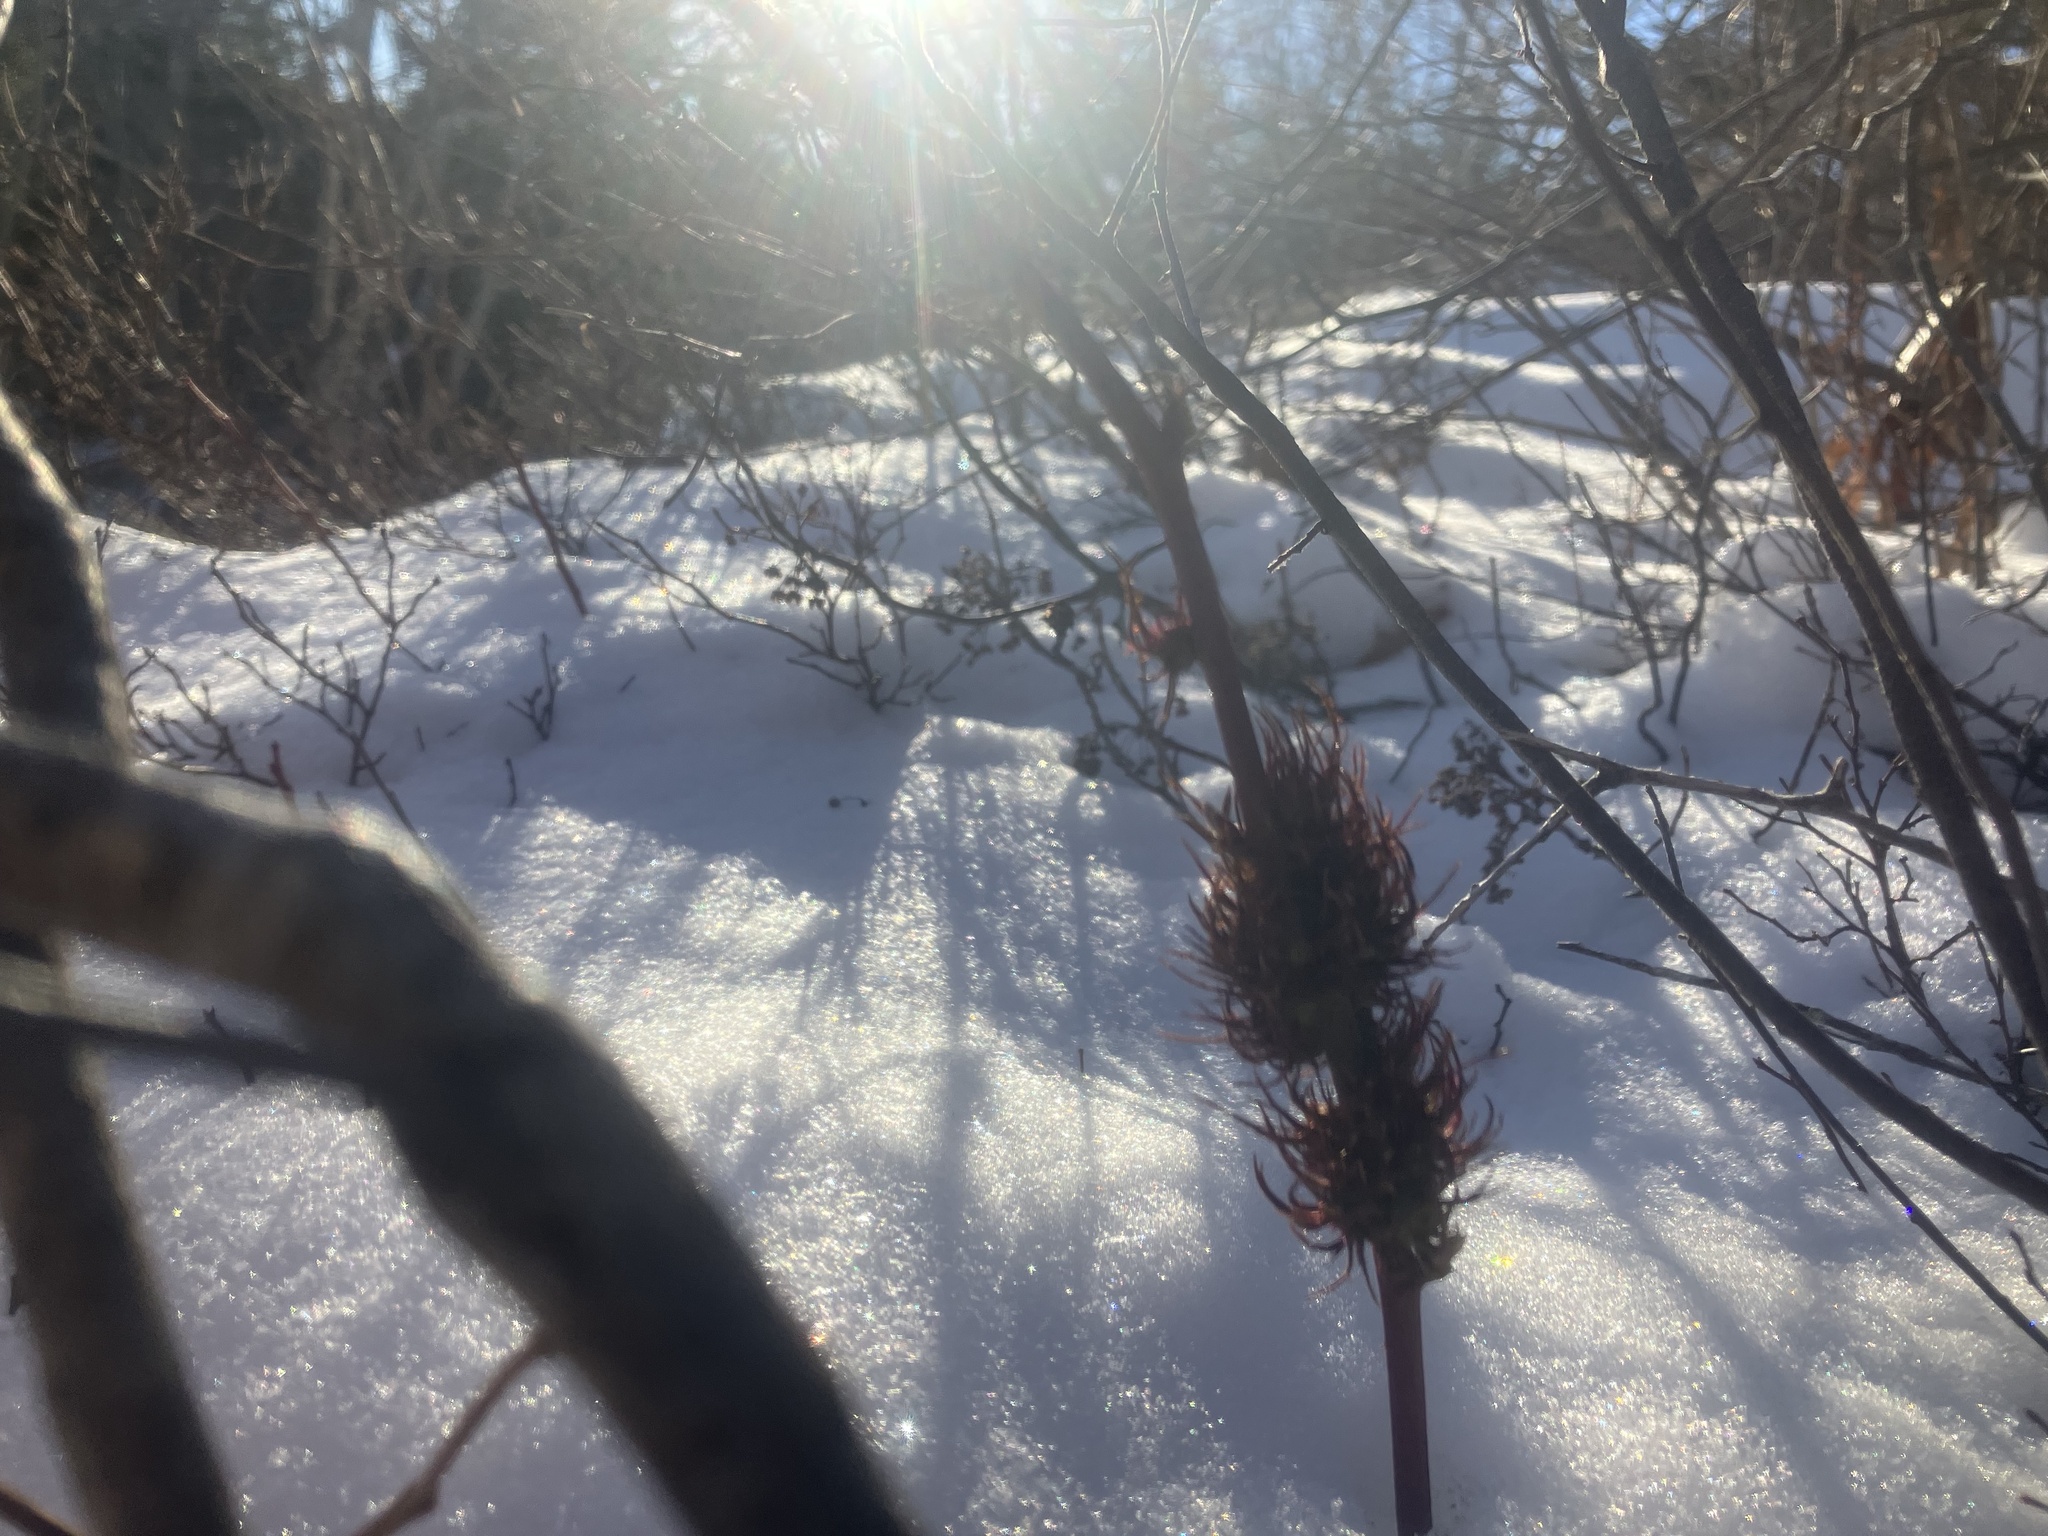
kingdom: Animalia
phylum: Arthropoda
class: Insecta
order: Hymenoptera
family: Cynipidae
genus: Diastrophus
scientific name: Diastrophus
